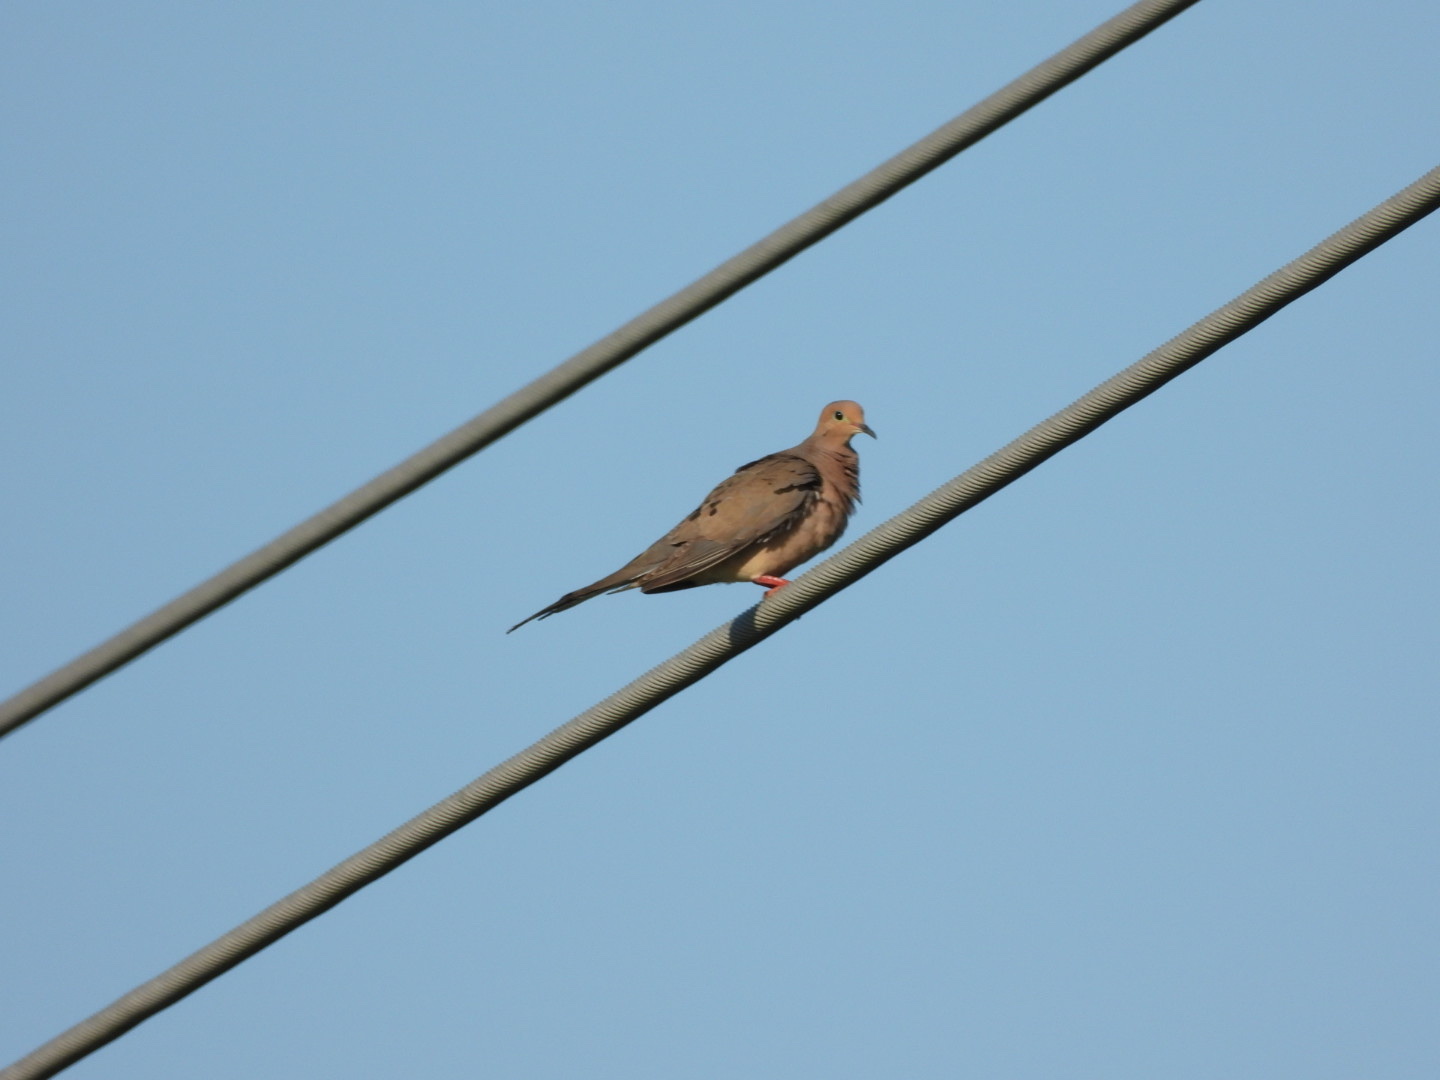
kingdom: Animalia
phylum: Chordata
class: Aves
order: Columbiformes
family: Columbidae
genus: Zenaida
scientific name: Zenaida macroura
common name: Mourning dove
